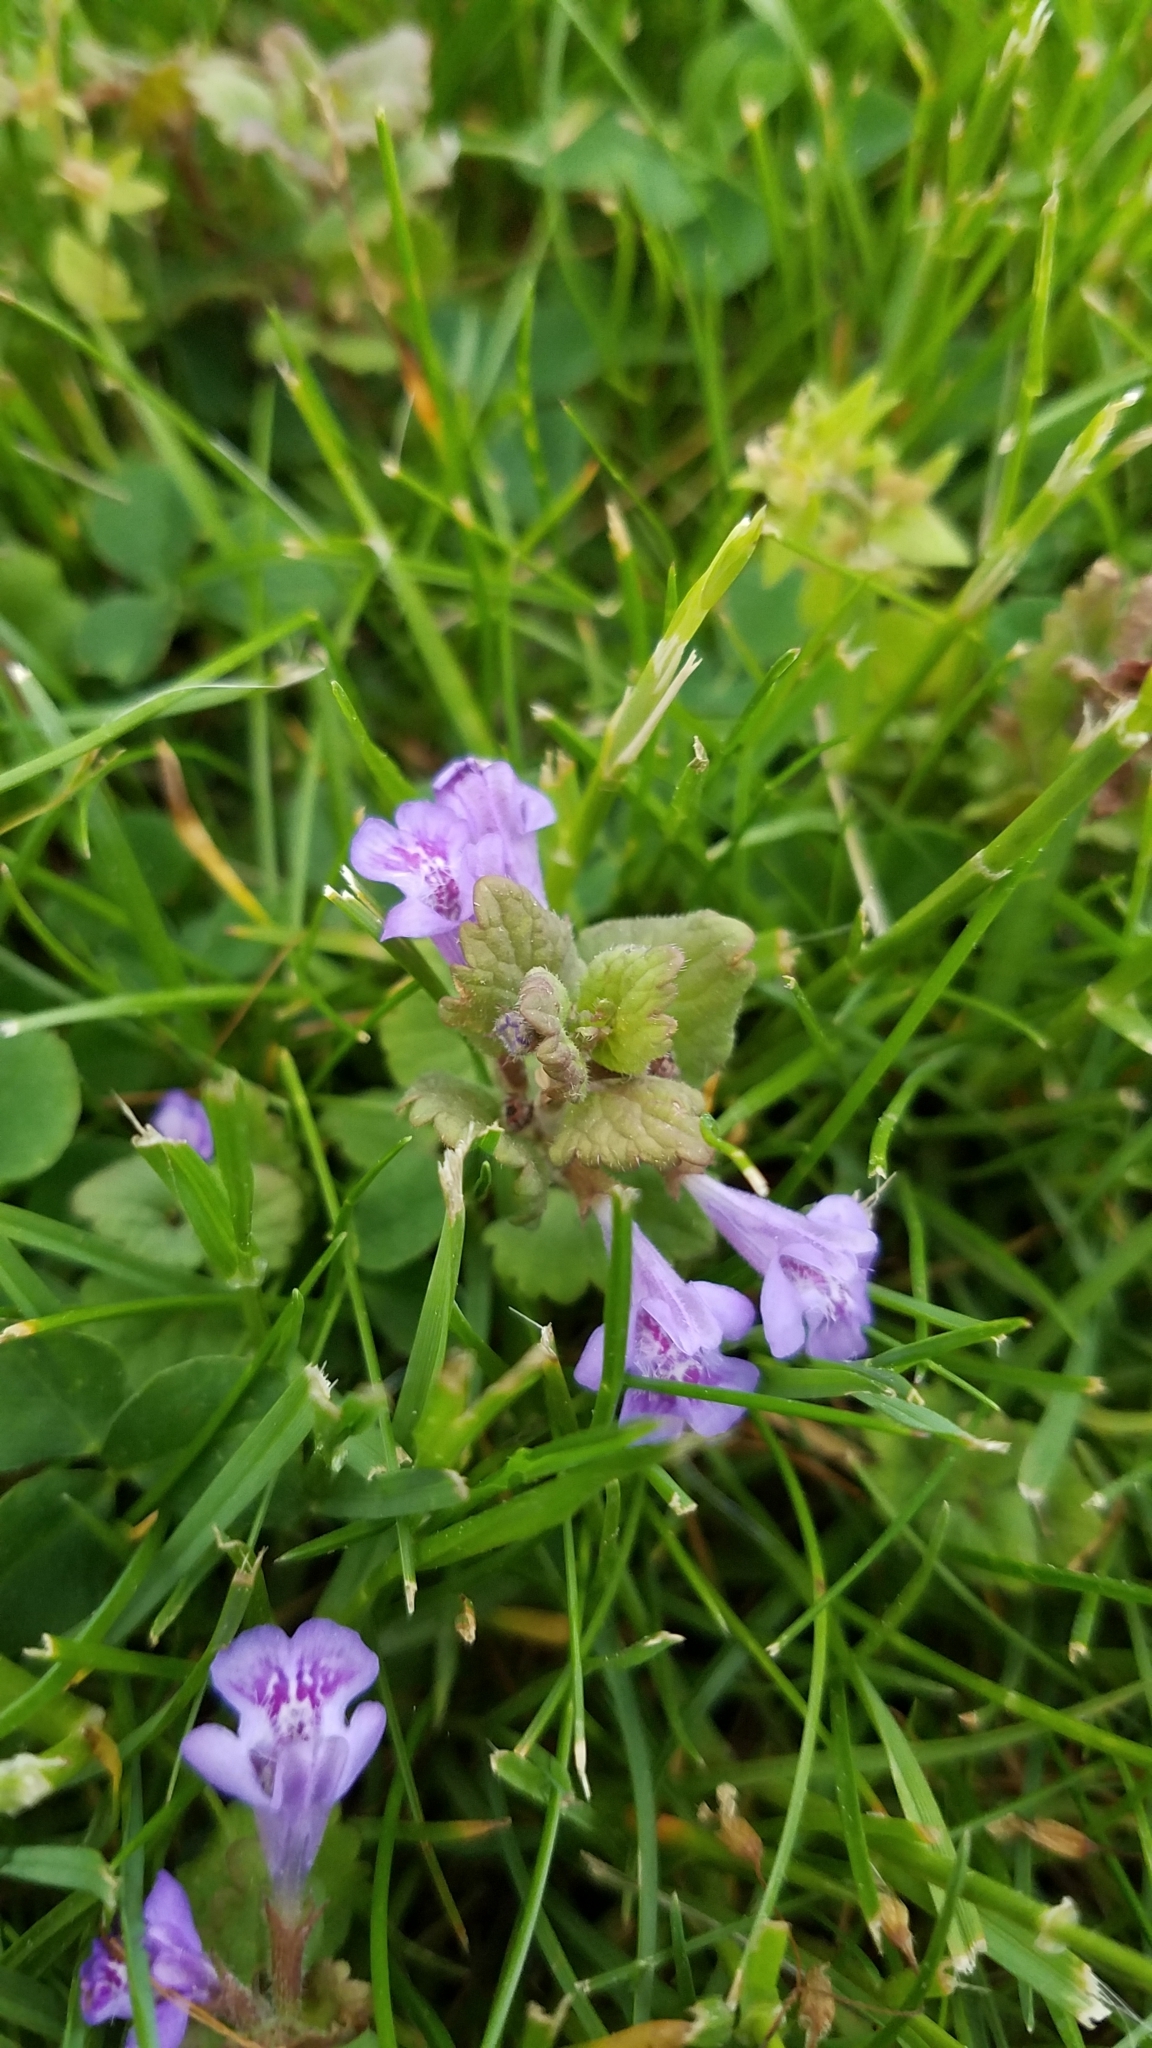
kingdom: Plantae
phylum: Tracheophyta
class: Magnoliopsida
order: Lamiales
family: Lamiaceae
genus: Glechoma
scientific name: Glechoma hederacea
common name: Ground ivy
